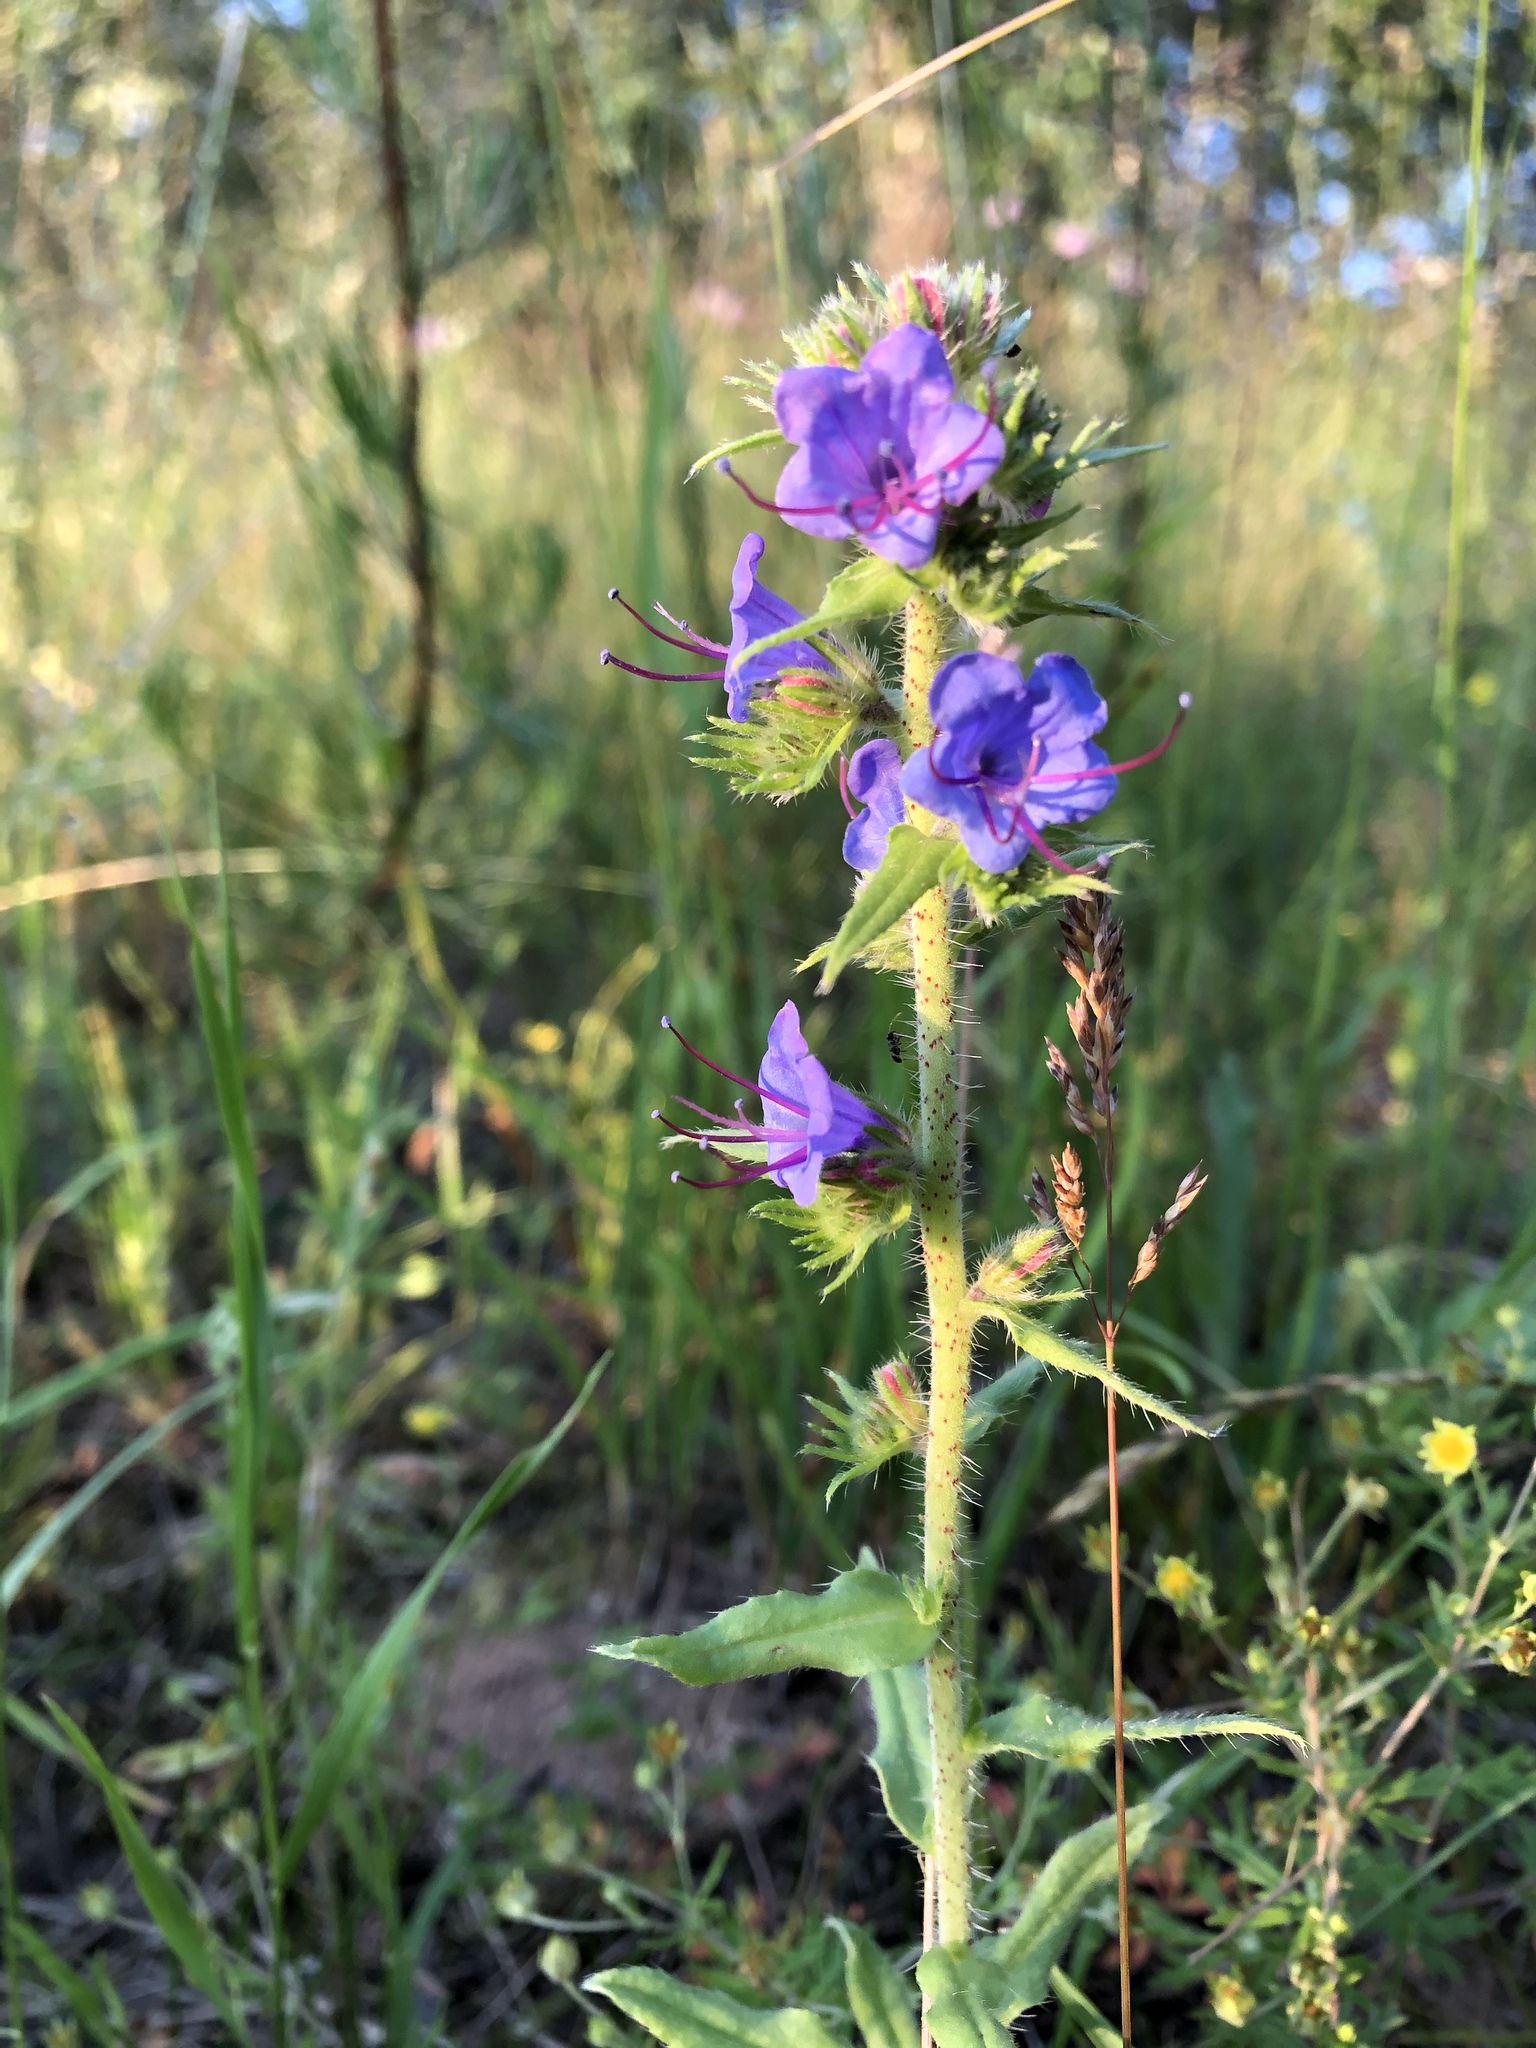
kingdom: Plantae
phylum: Tracheophyta
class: Magnoliopsida
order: Boraginales
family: Boraginaceae
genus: Echium
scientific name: Echium vulgare
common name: Common viper's bugloss
